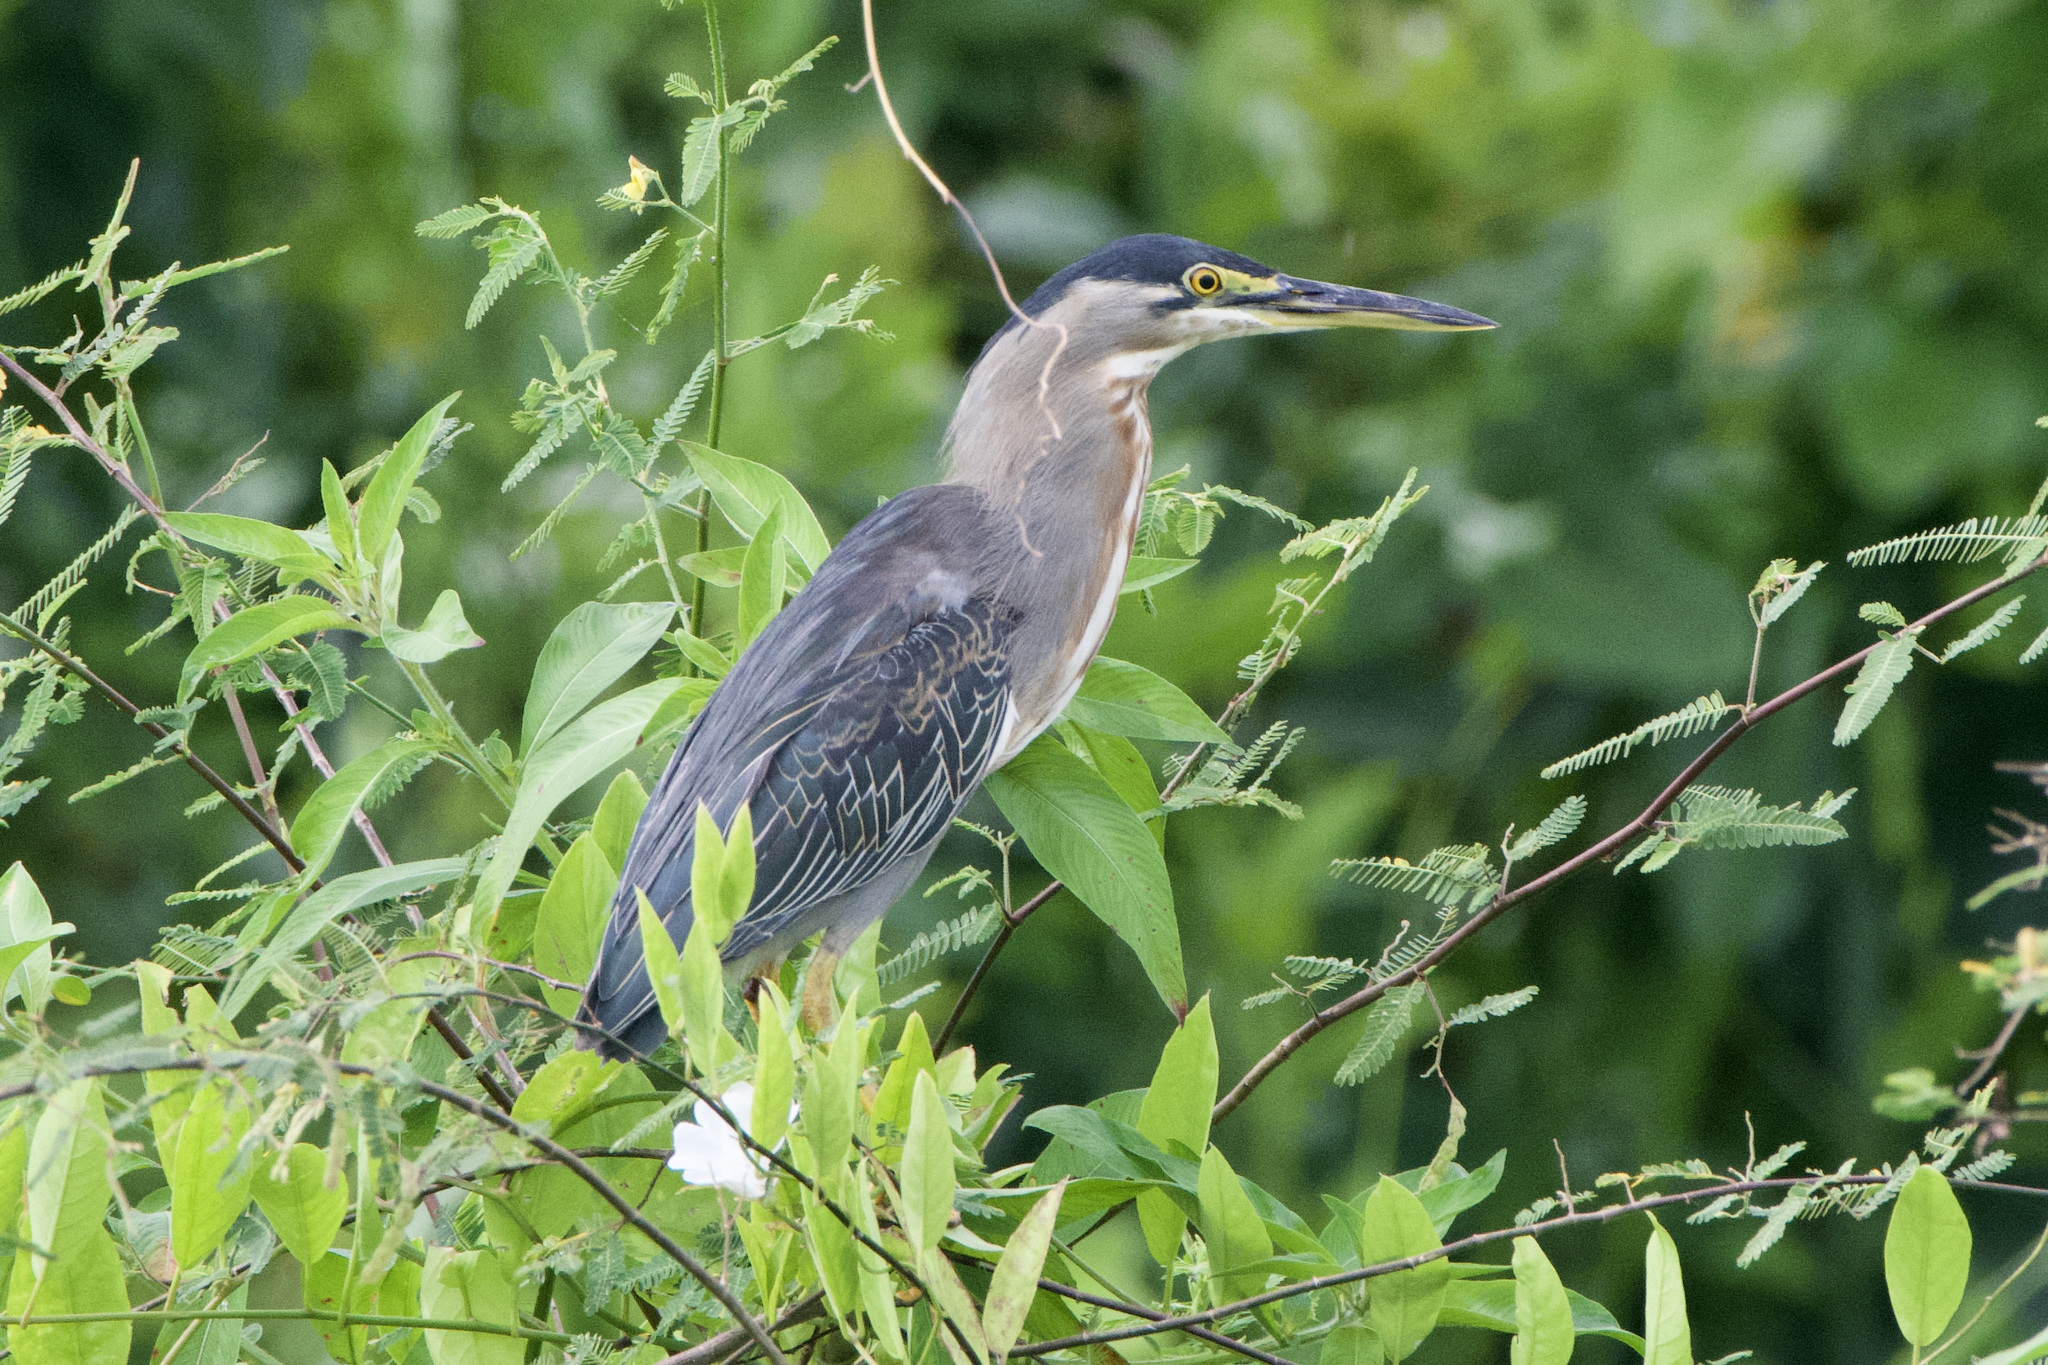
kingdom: Animalia
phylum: Chordata
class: Aves
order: Pelecaniformes
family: Ardeidae
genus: Butorides
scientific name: Butorides striata
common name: Striated heron
